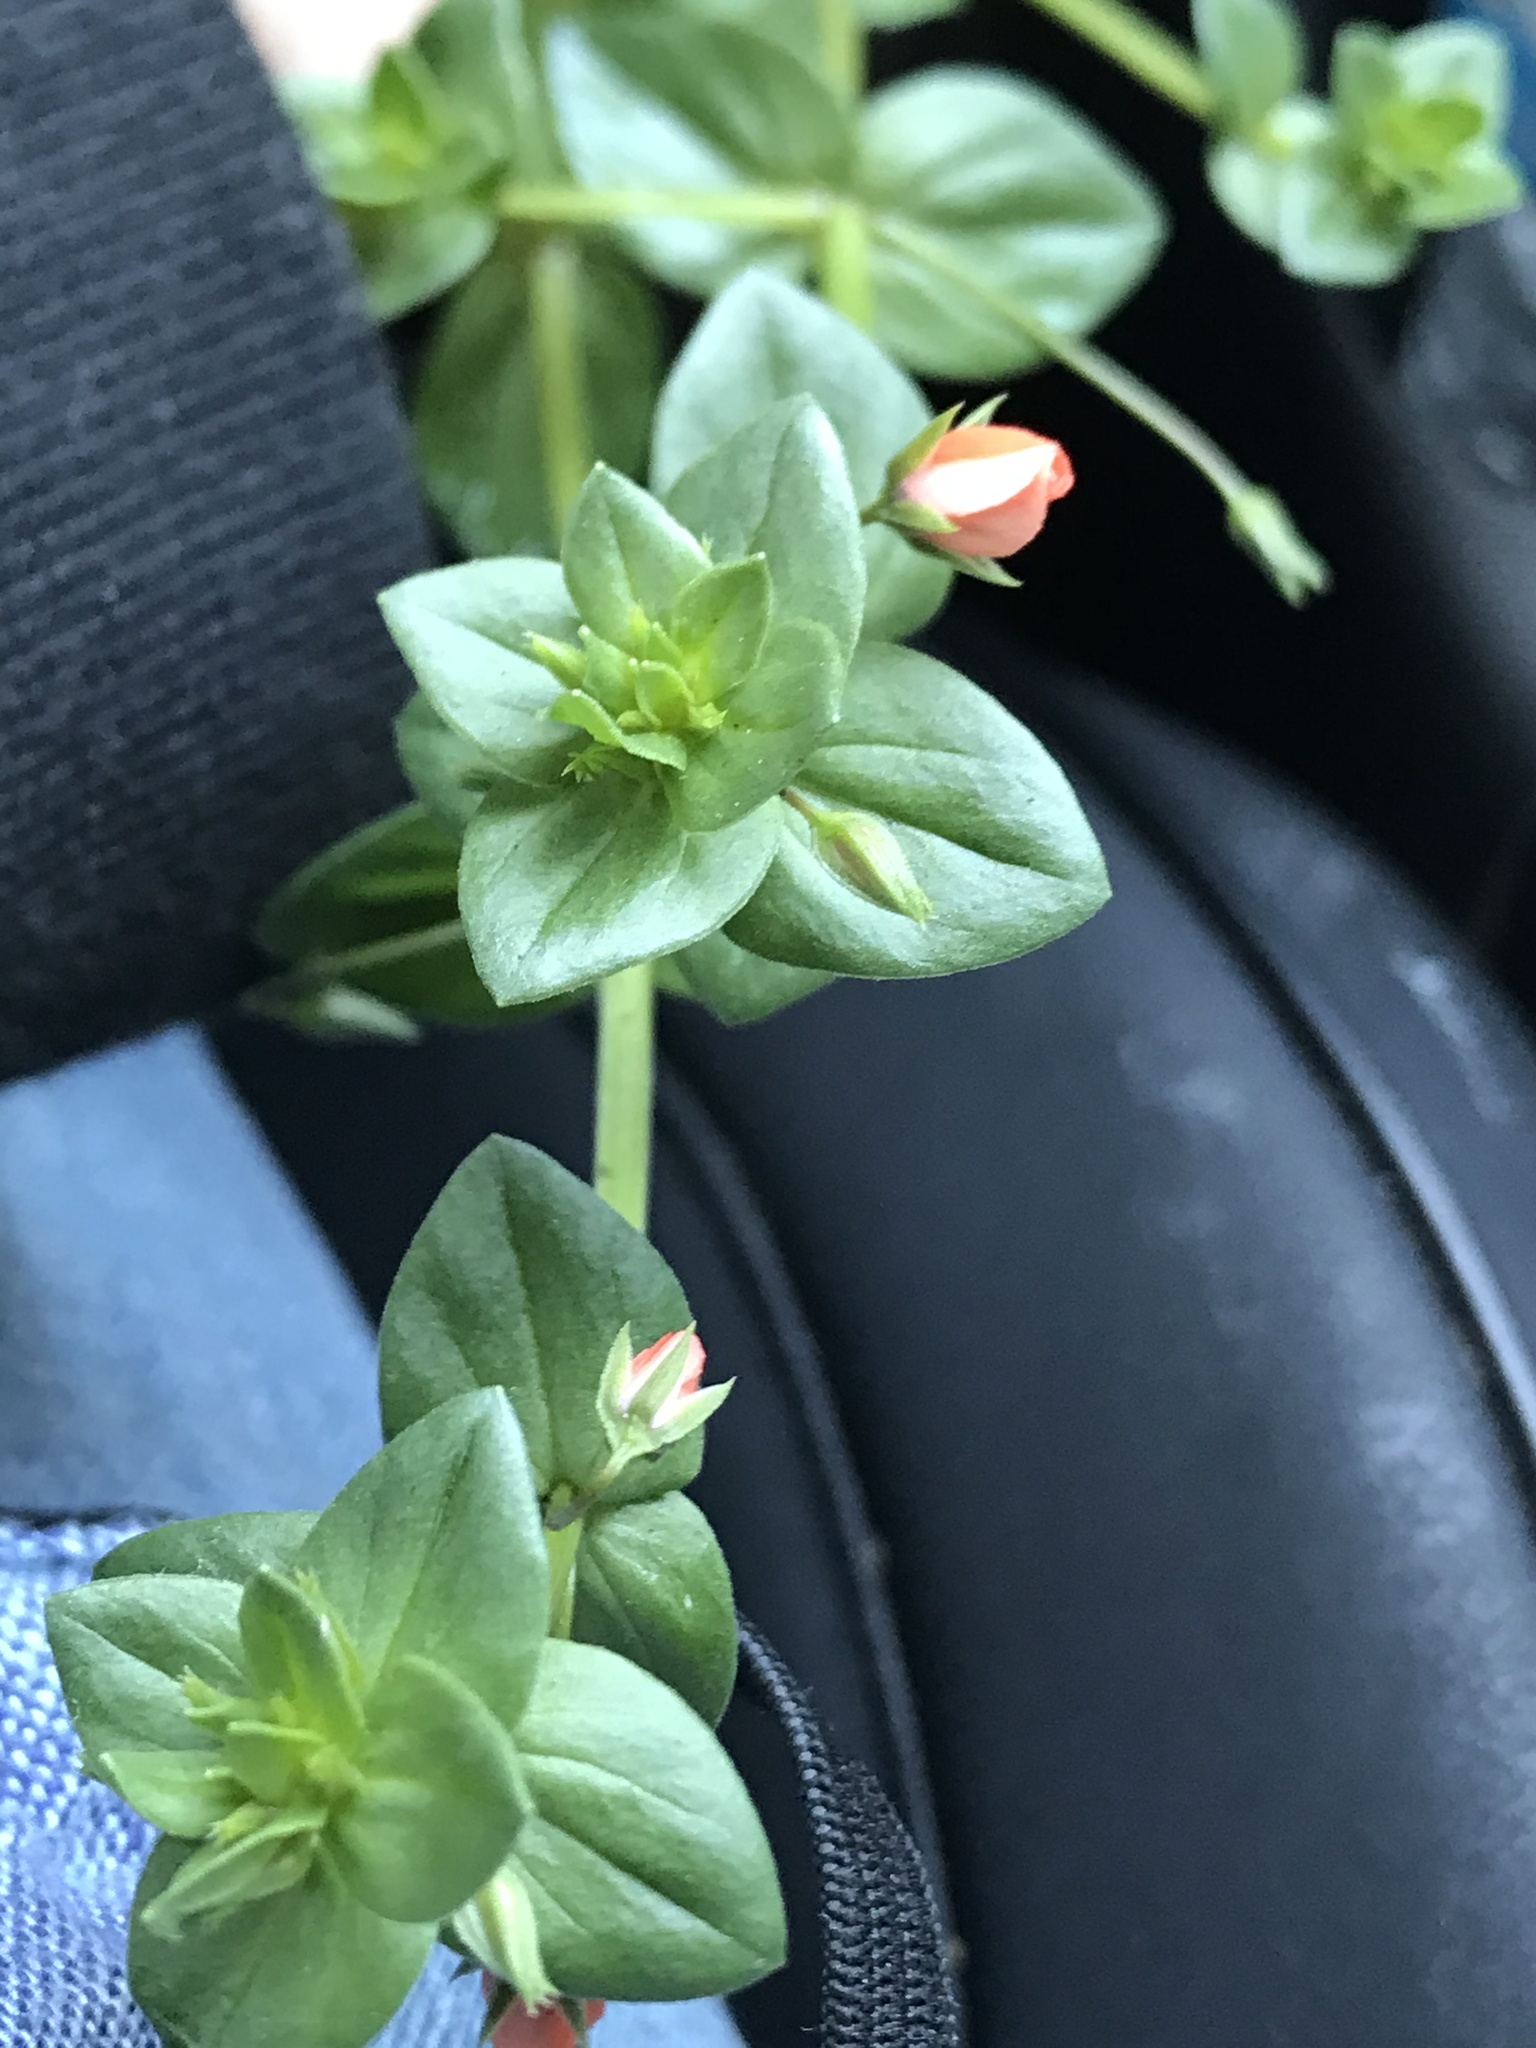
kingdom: Plantae
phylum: Tracheophyta
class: Magnoliopsida
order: Ericales
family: Primulaceae
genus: Lysimachia
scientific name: Lysimachia arvensis
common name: Scarlet pimpernel
